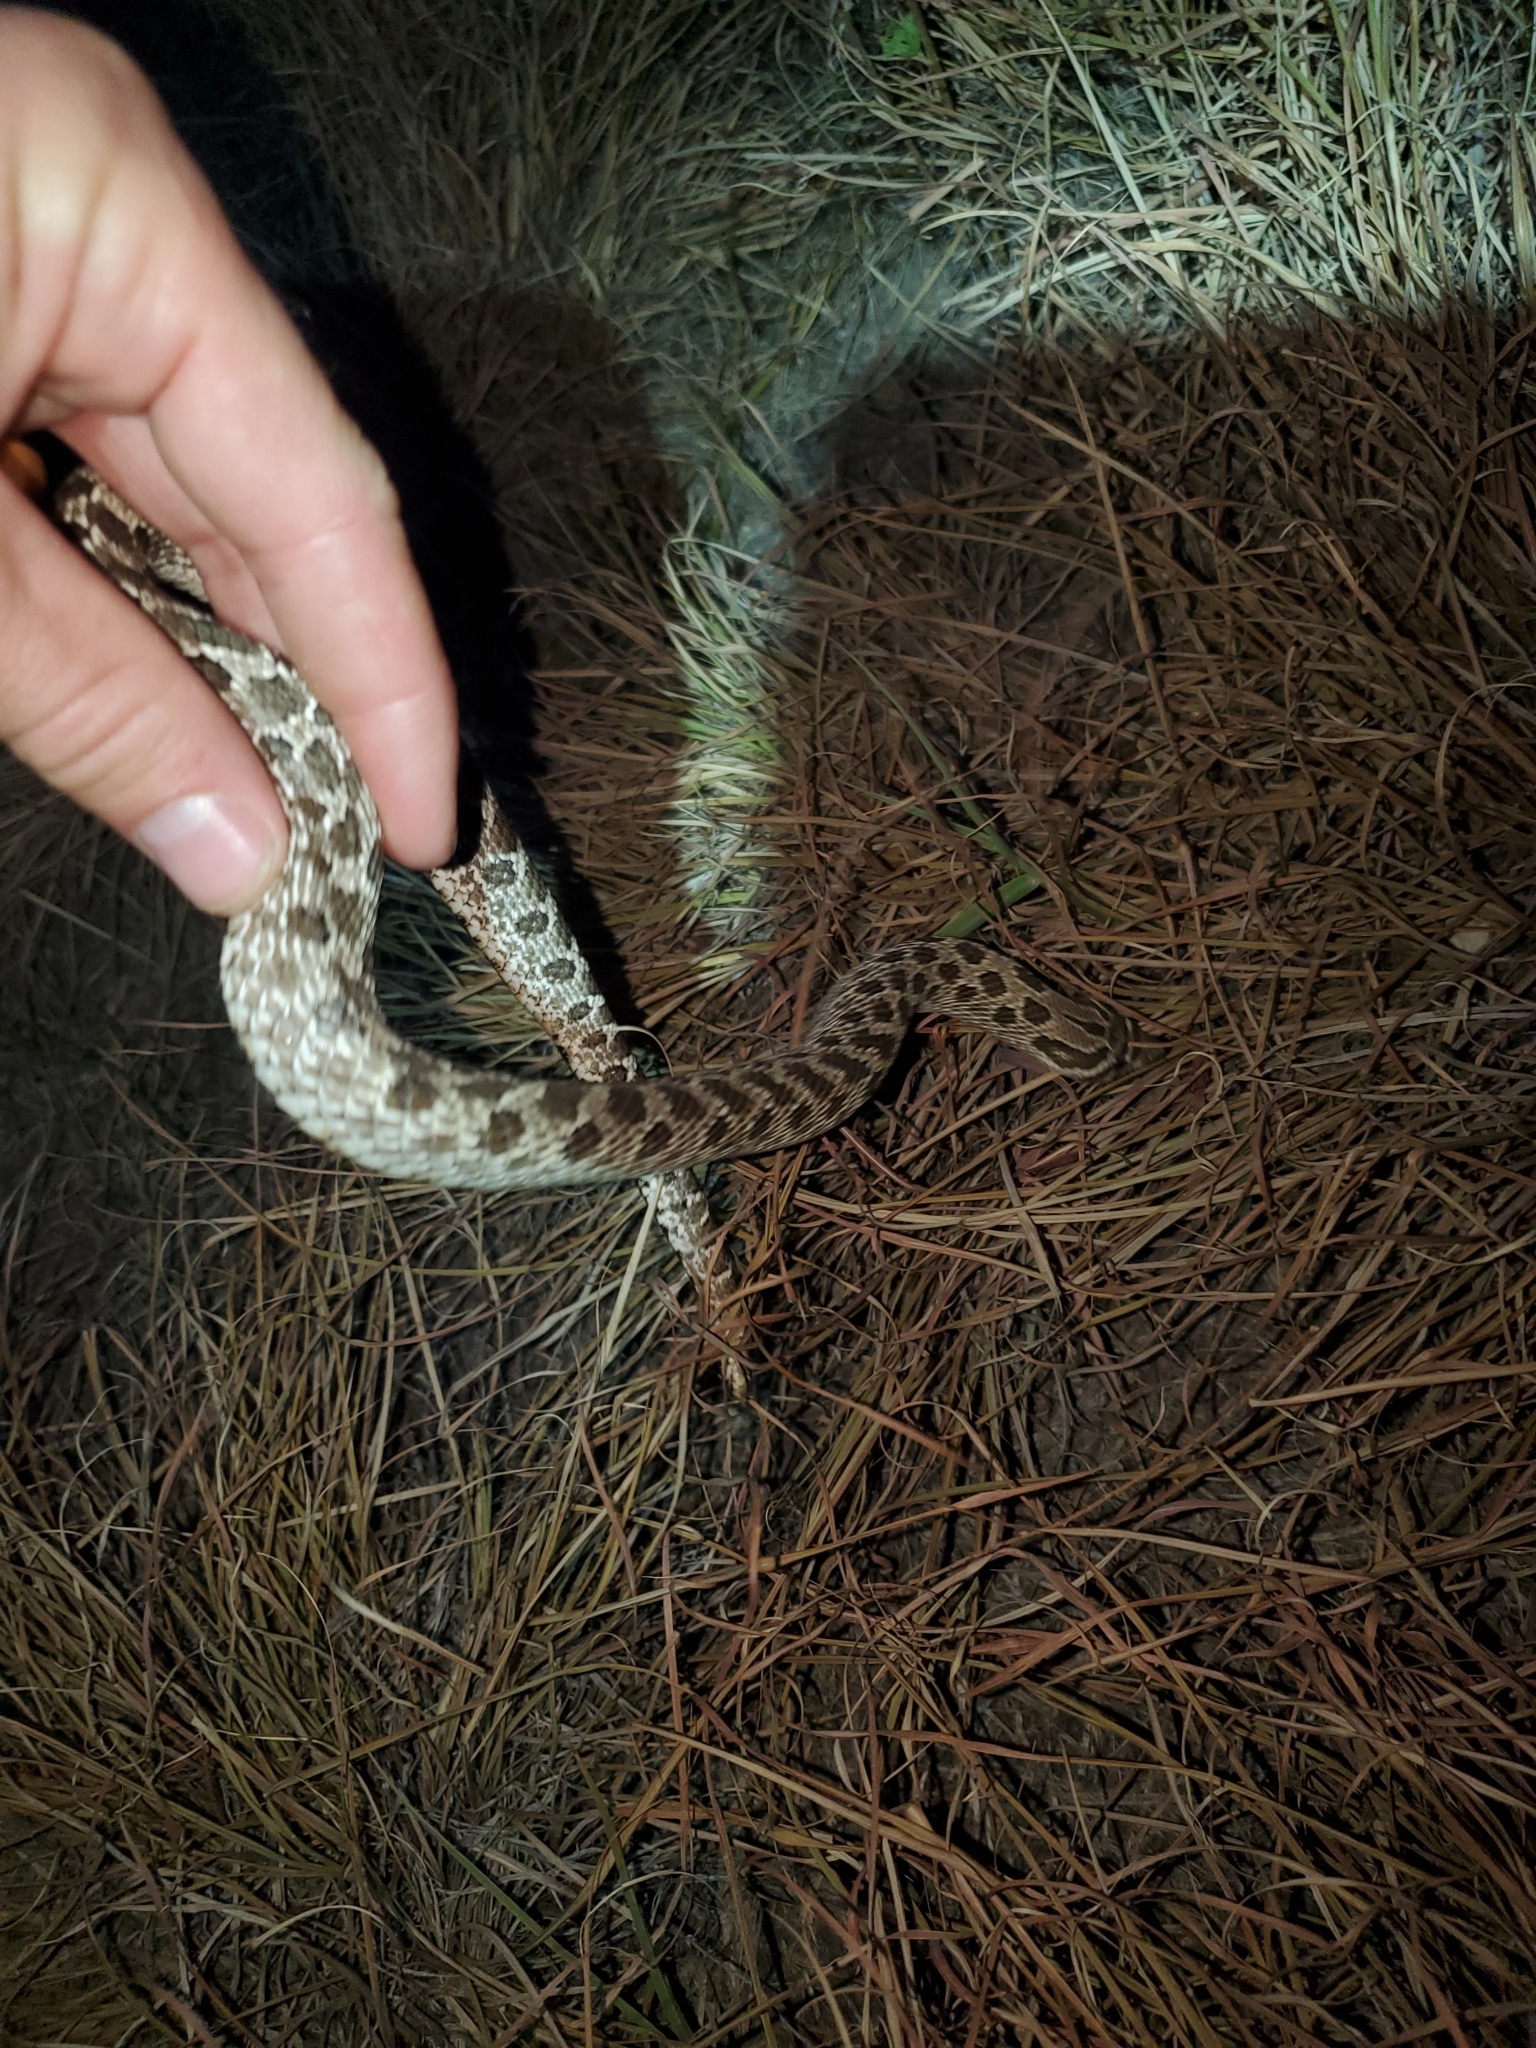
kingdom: Animalia
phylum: Chordata
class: Squamata
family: Colubridae
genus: Heterodon
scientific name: Heterodon nasicus
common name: Western hognose snake
